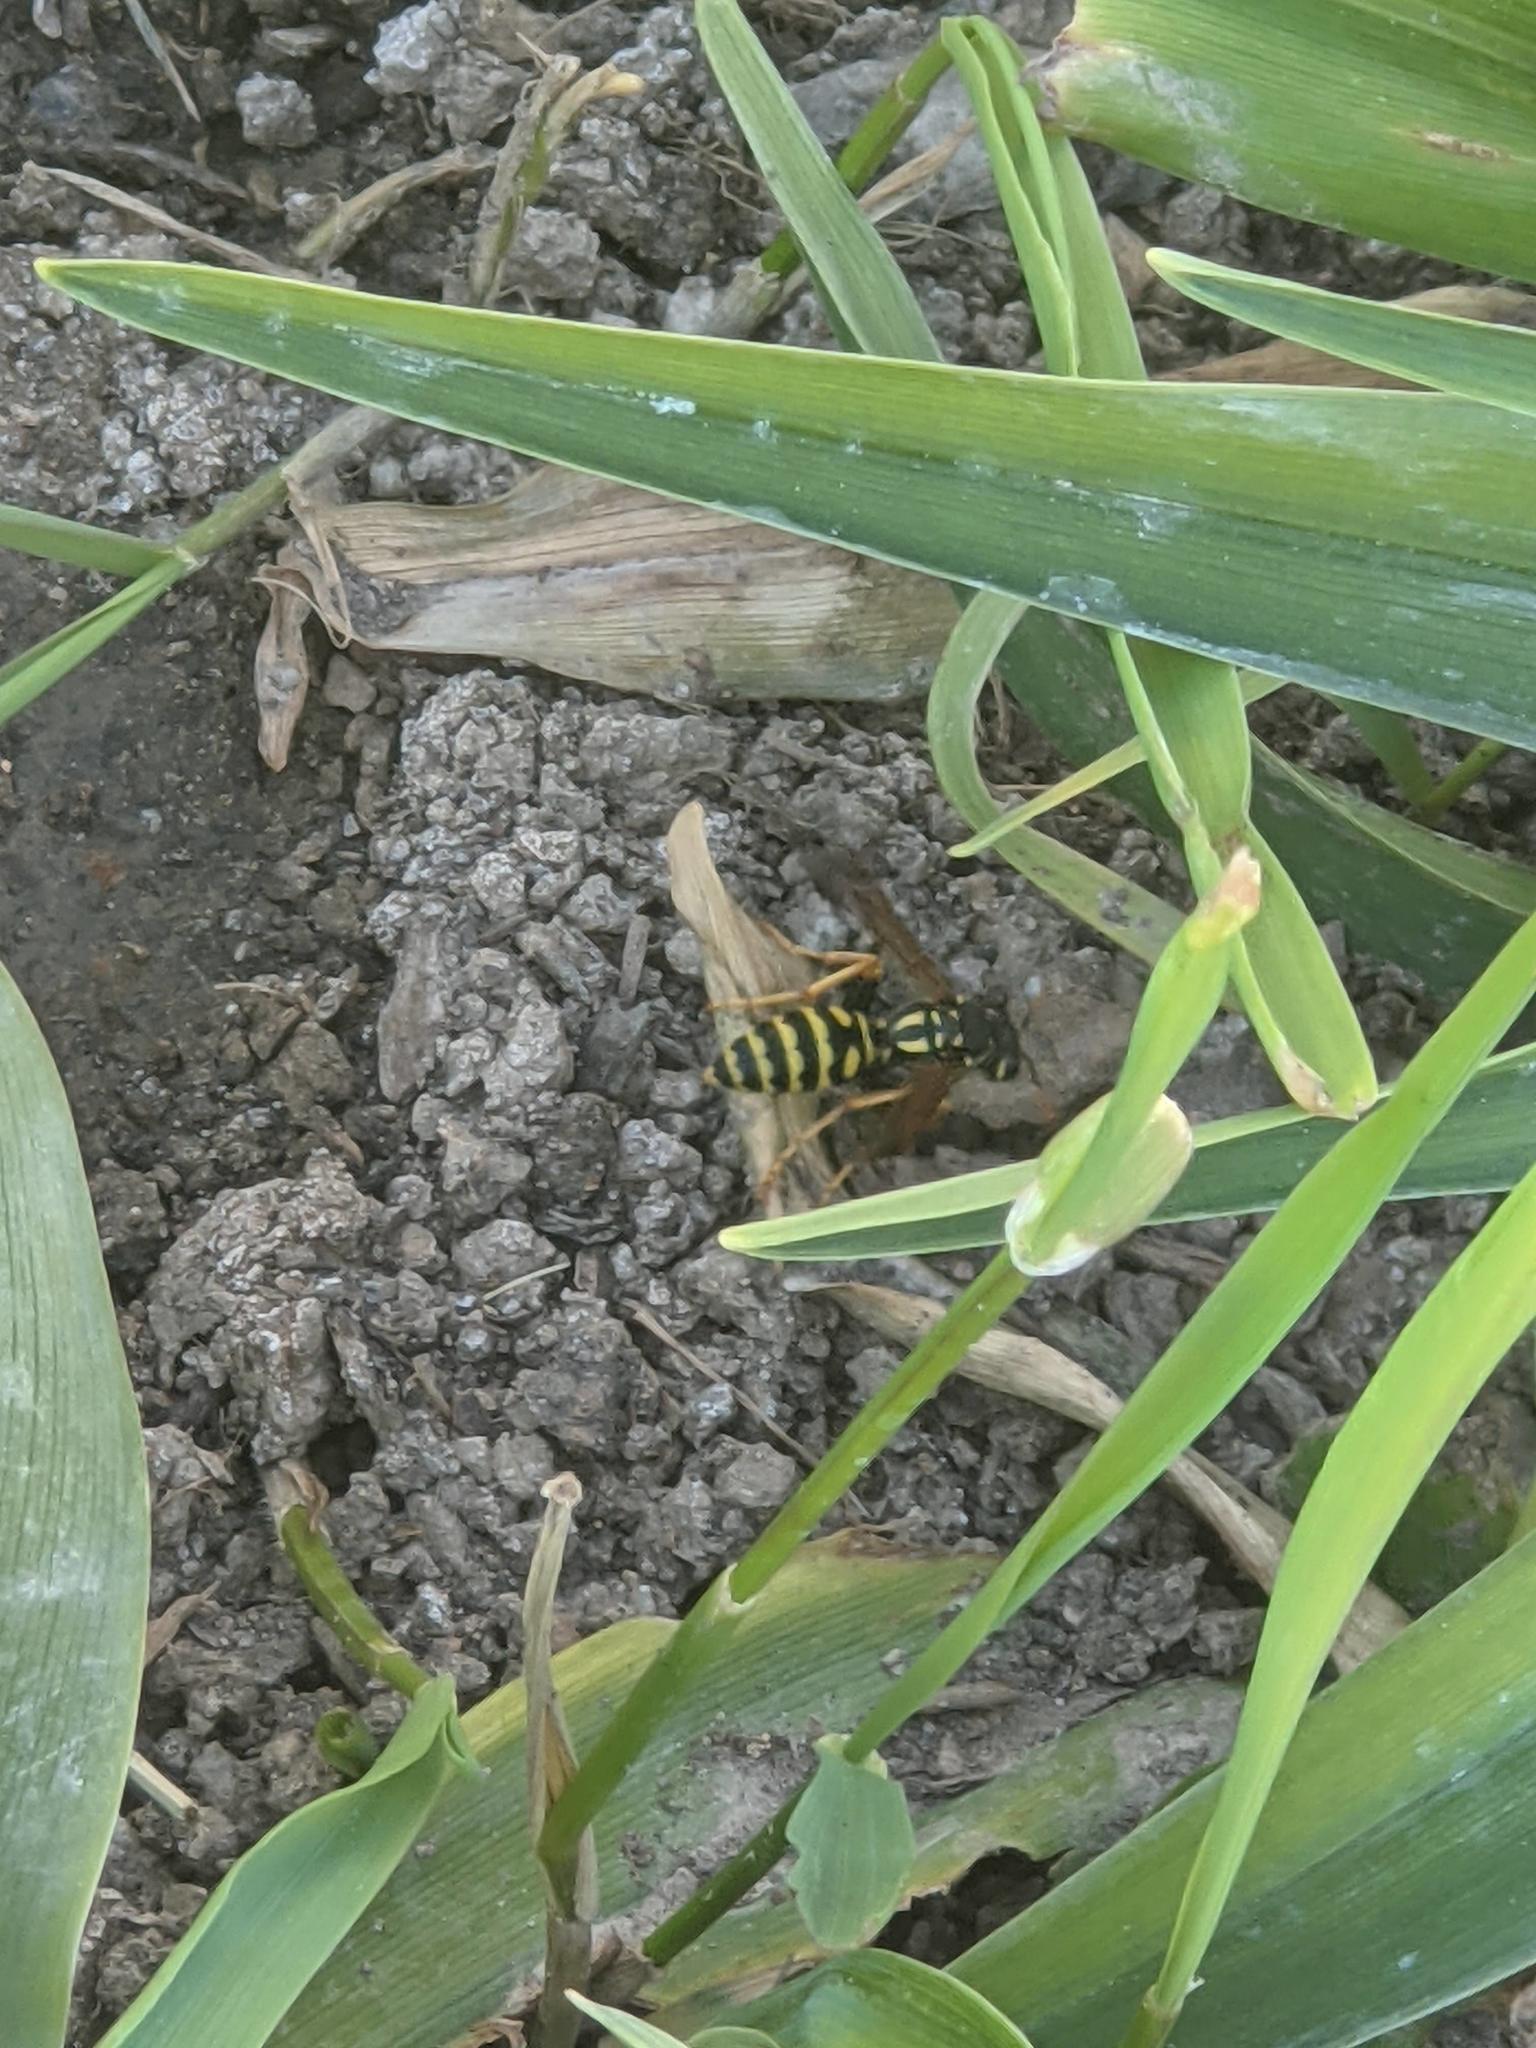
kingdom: Animalia
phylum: Arthropoda
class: Insecta
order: Hymenoptera
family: Eumenidae
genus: Polistes
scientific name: Polistes dominula
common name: Paper wasp
